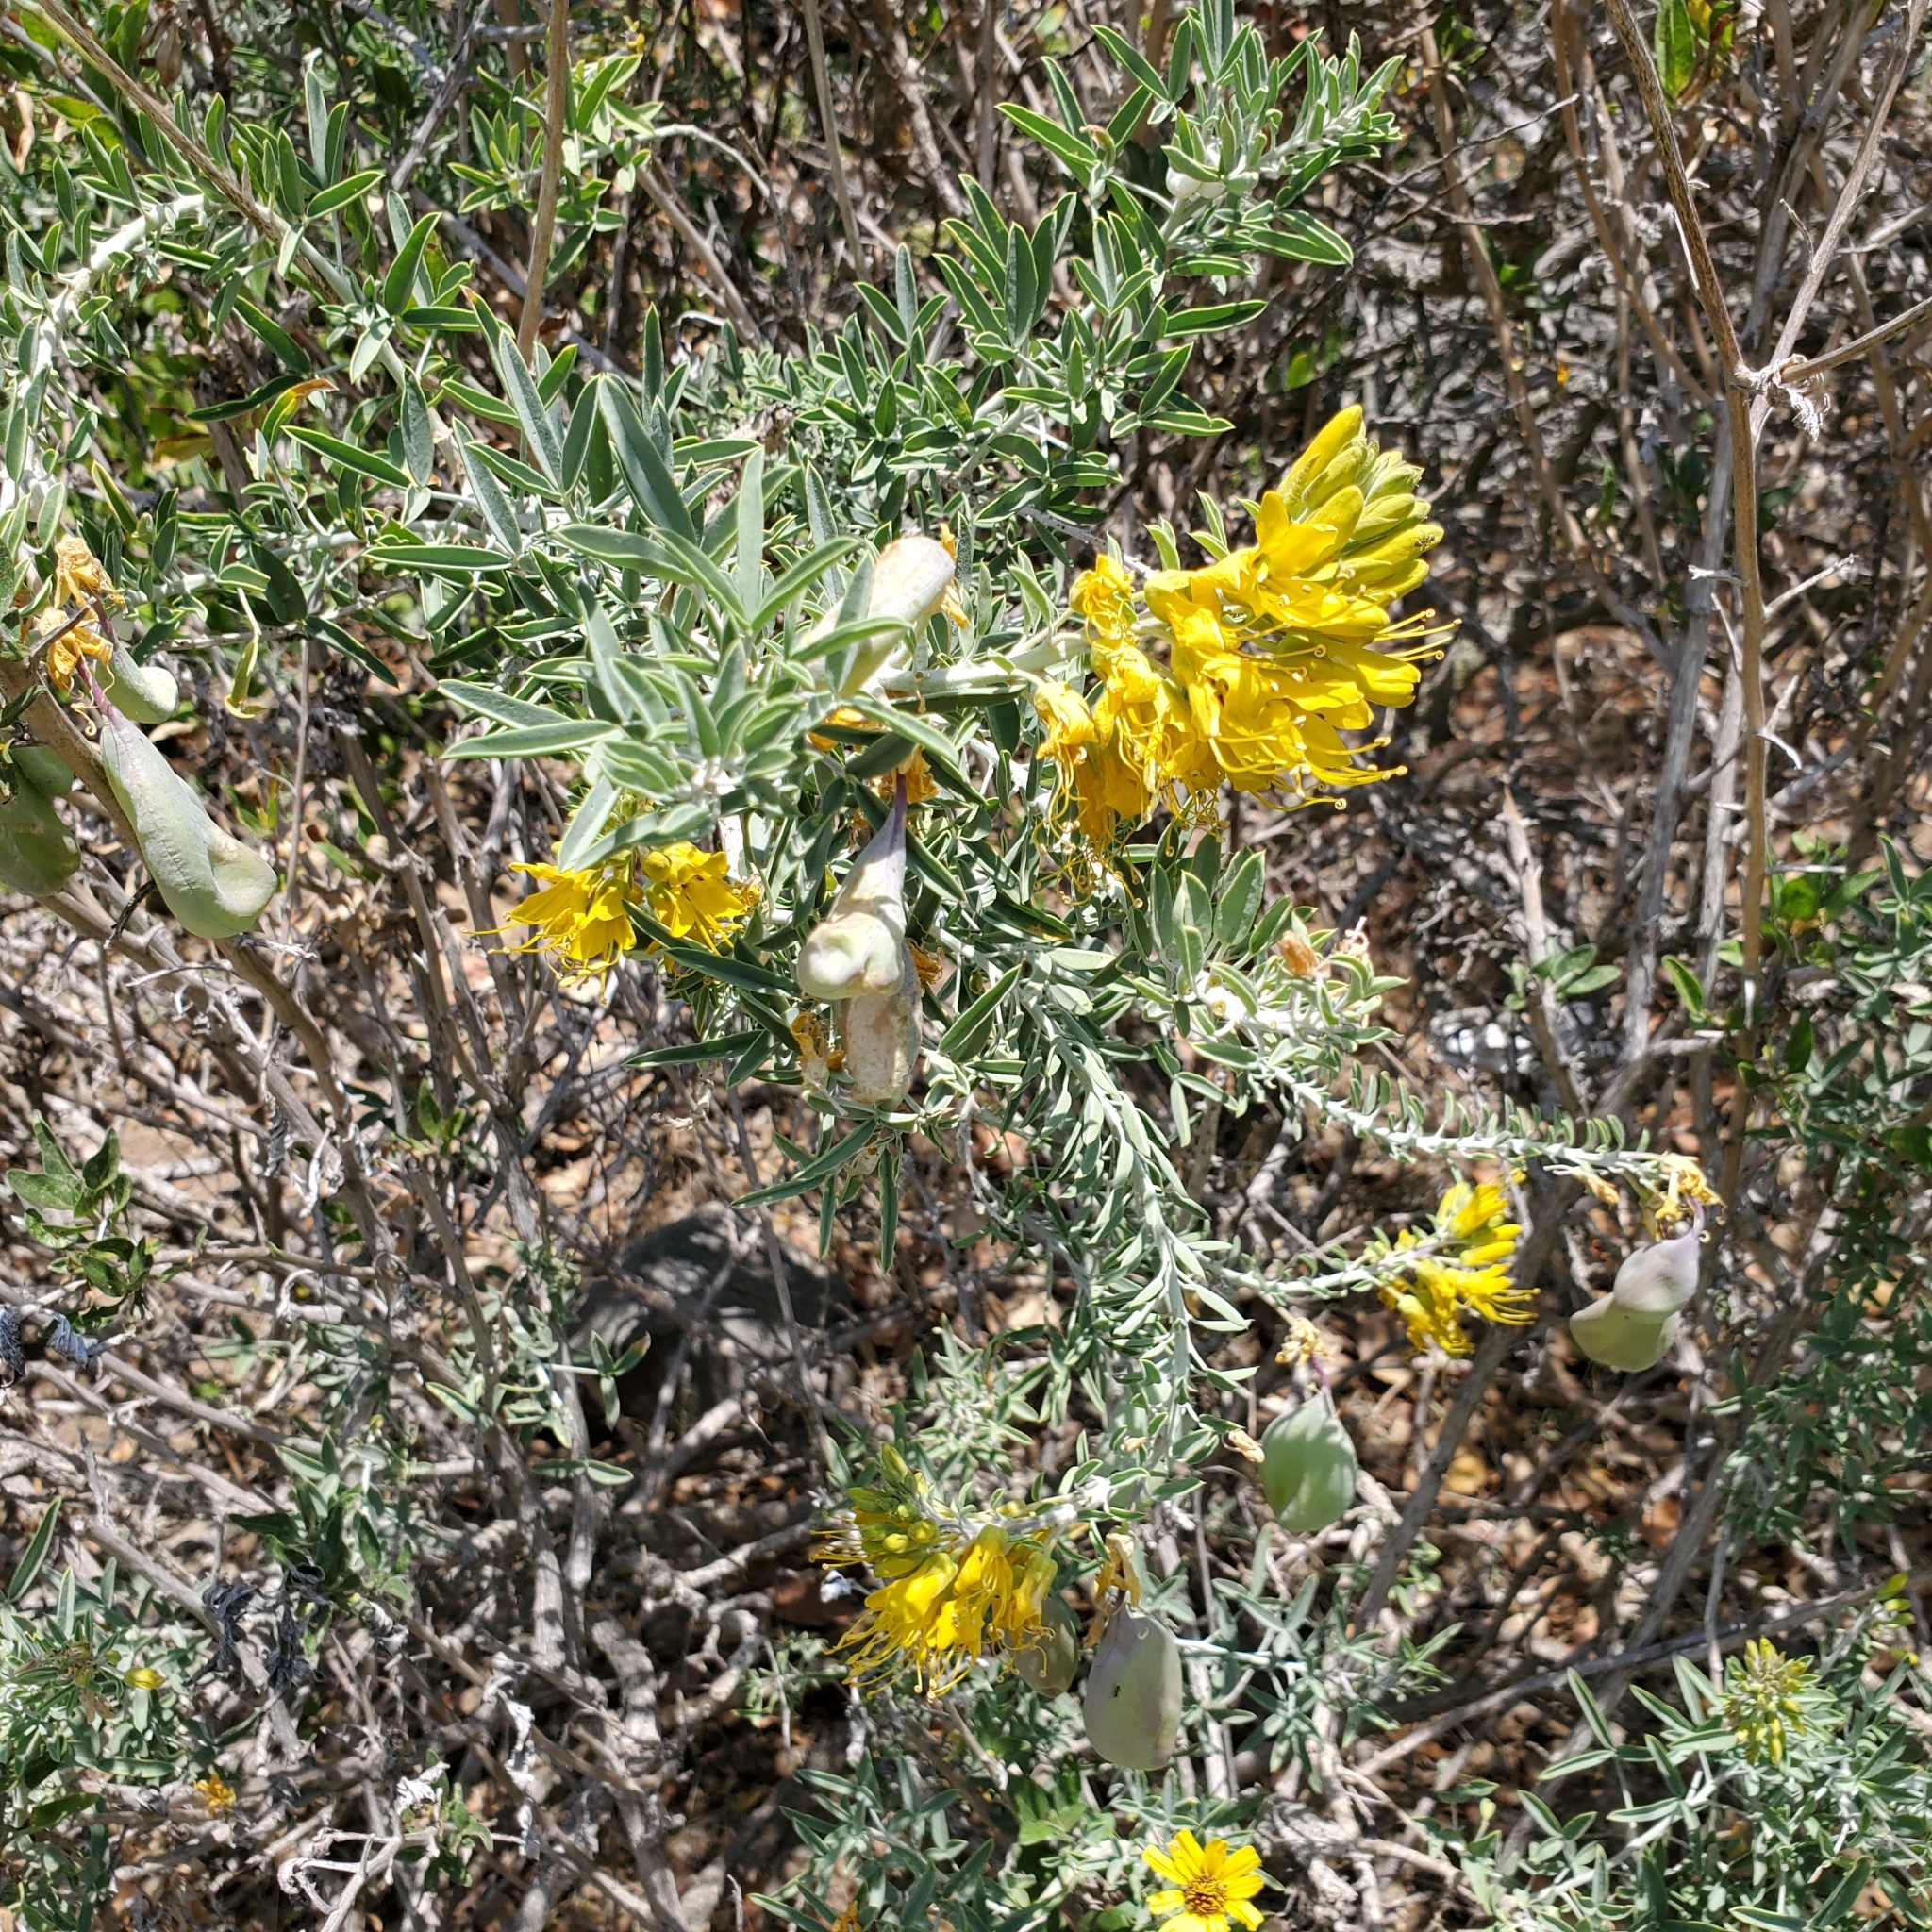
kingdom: Plantae
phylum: Tracheophyta
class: Magnoliopsida
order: Brassicales
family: Cleomaceae
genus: Cleomella
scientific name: Cleomella arborea
